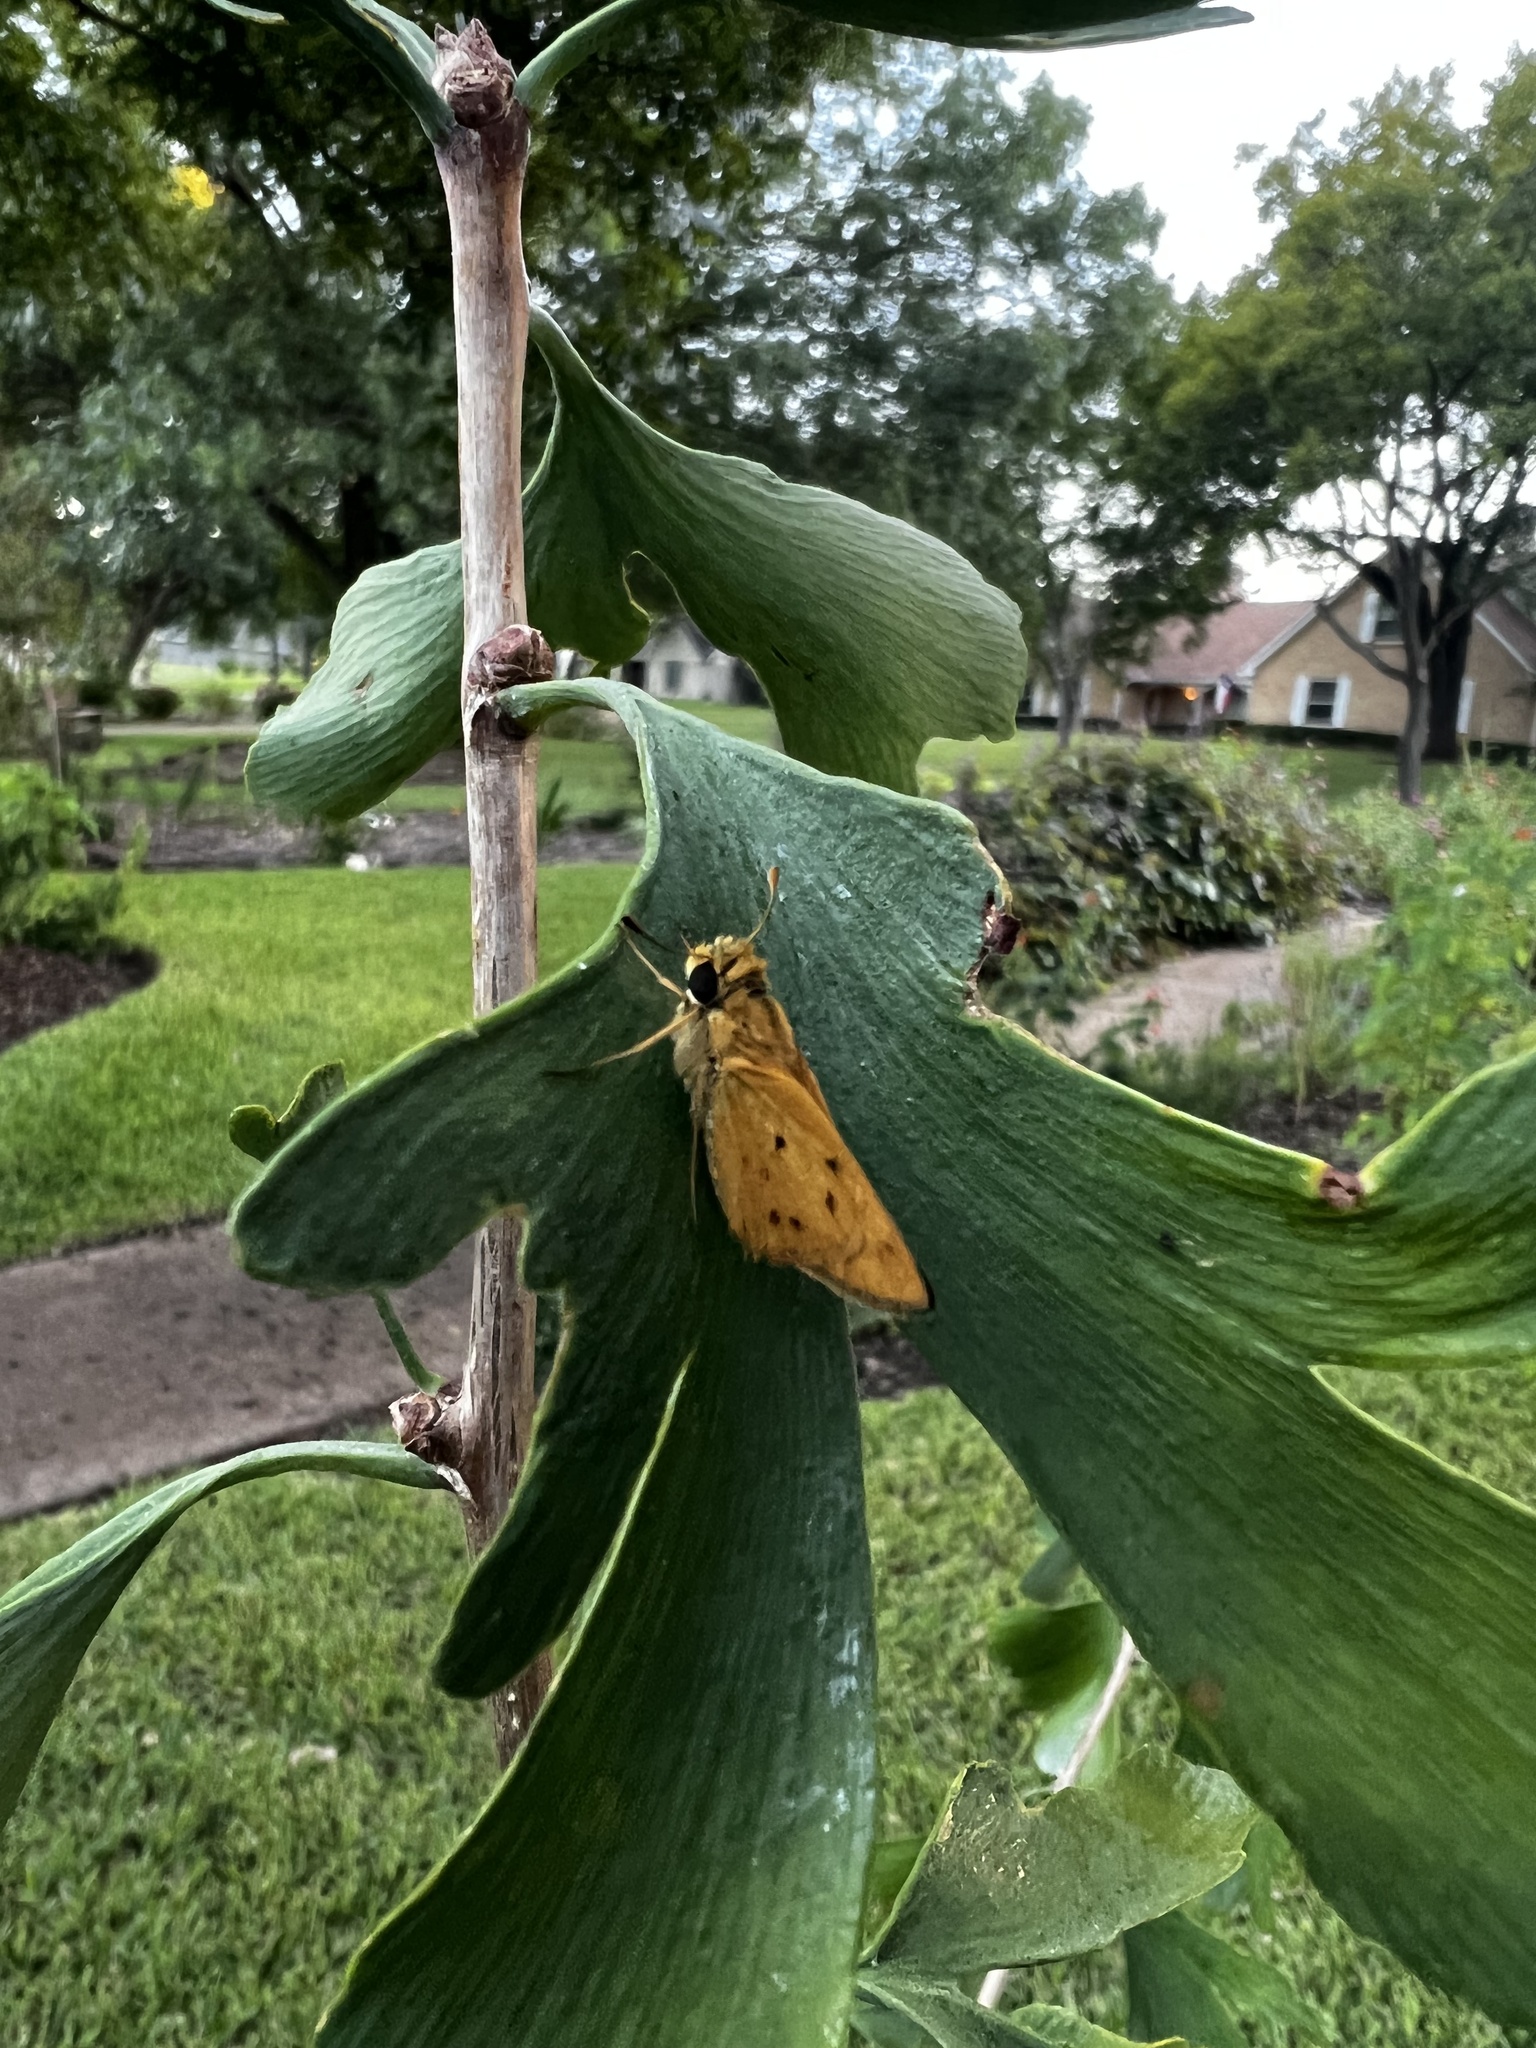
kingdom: Animalia
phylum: Arthropoda
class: Insecta
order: Lepidoptera
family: Hesperiidae
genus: Hylephila
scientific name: Hylephila phyleus
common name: Fiery skipper
